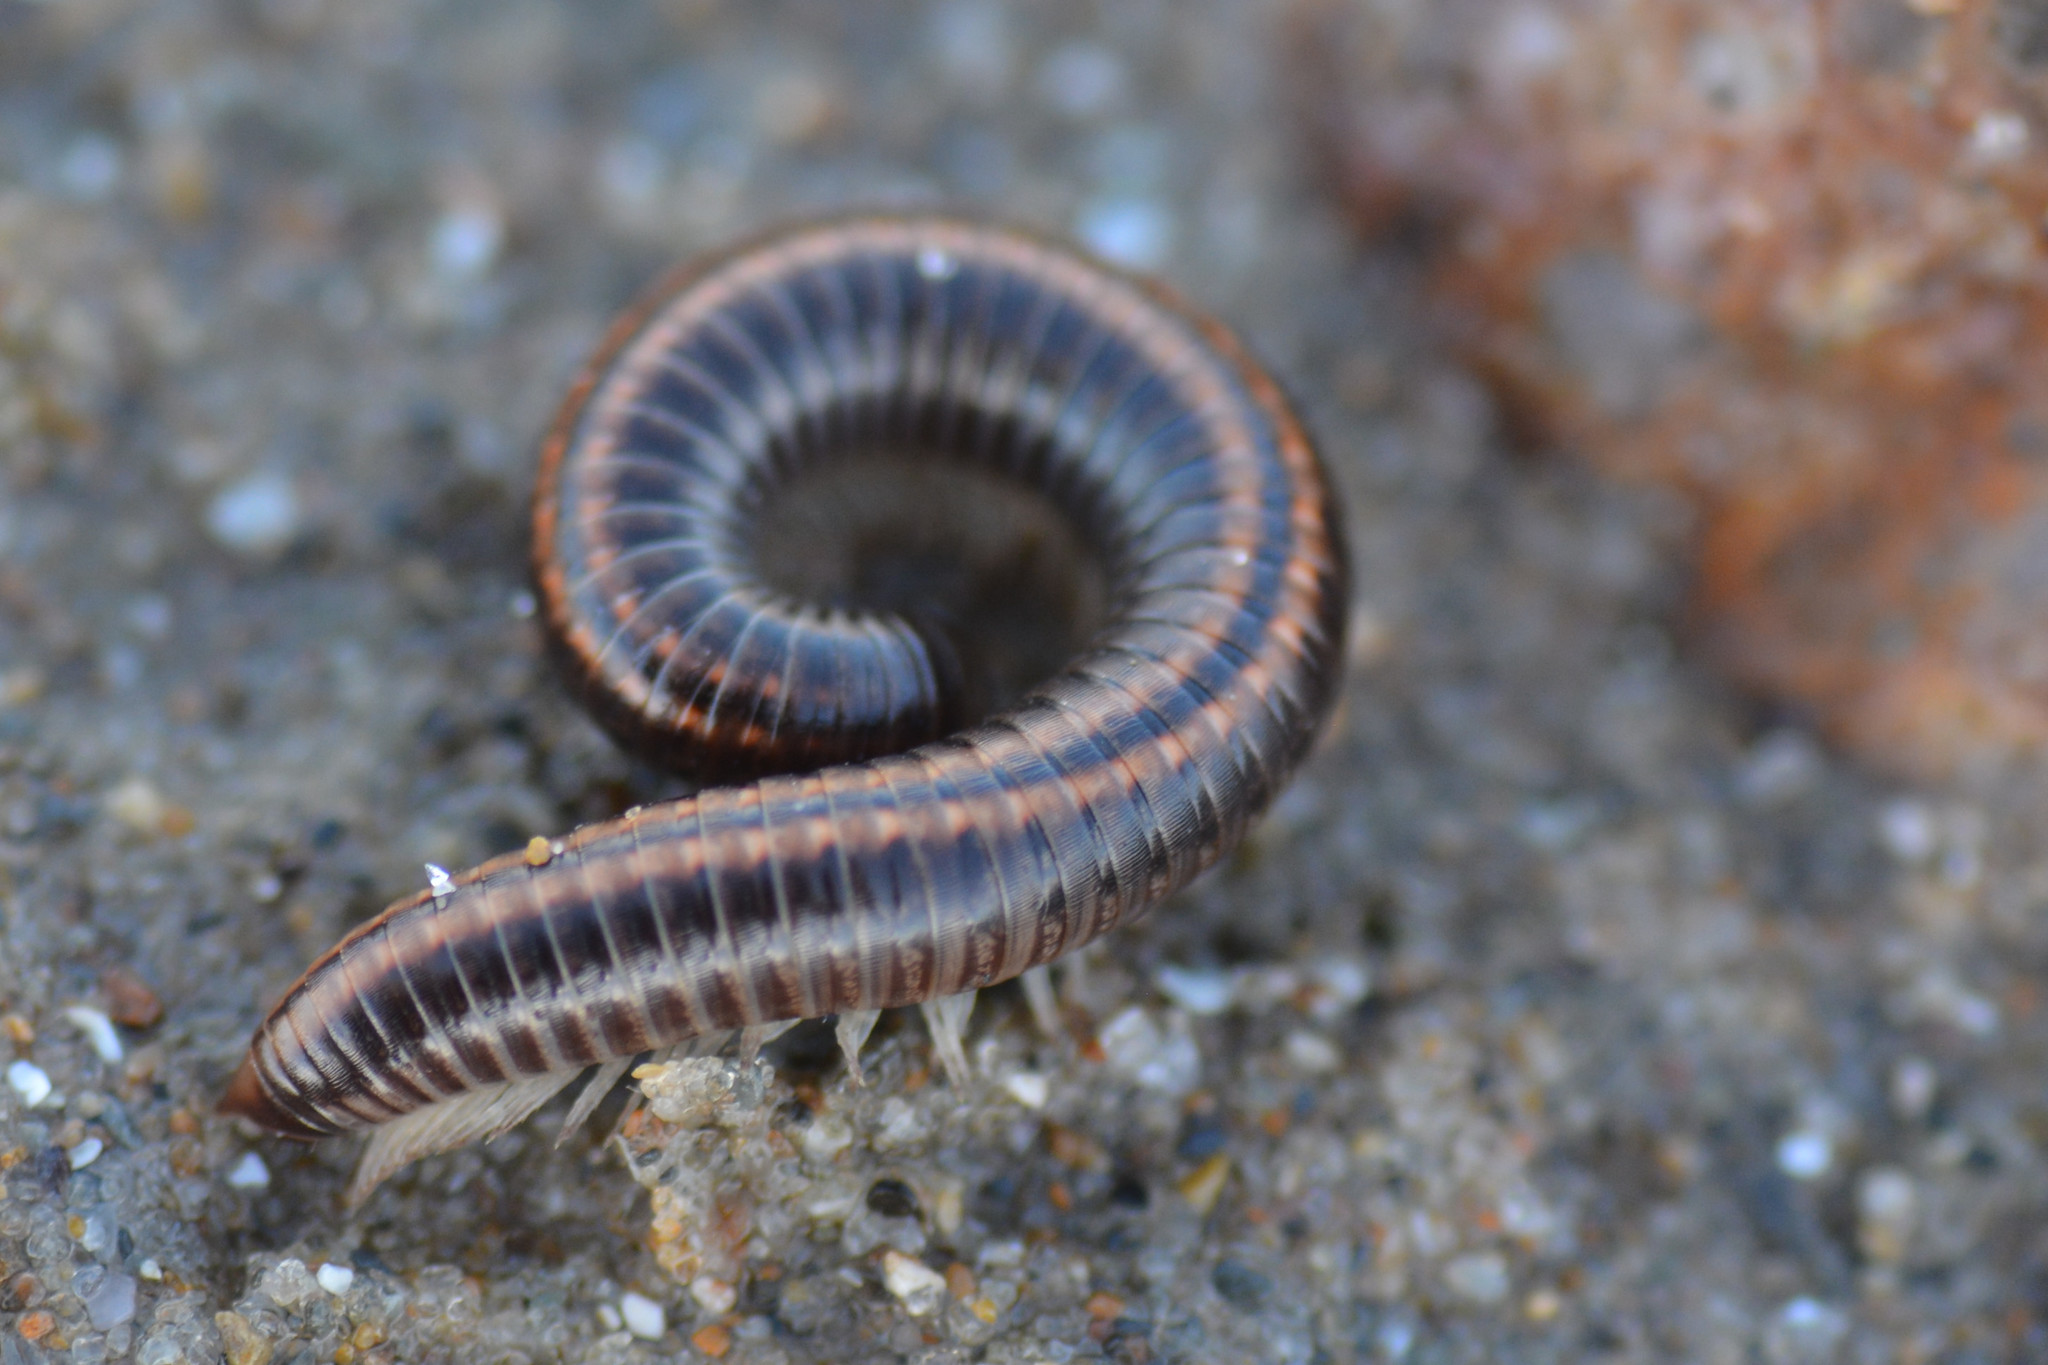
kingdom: Animalia
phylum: Arthropoda
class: Diplopoda
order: Julida
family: Julidae
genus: Ommatoiulus
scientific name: Ommatoiulus sabulosus
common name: Striped millipede
